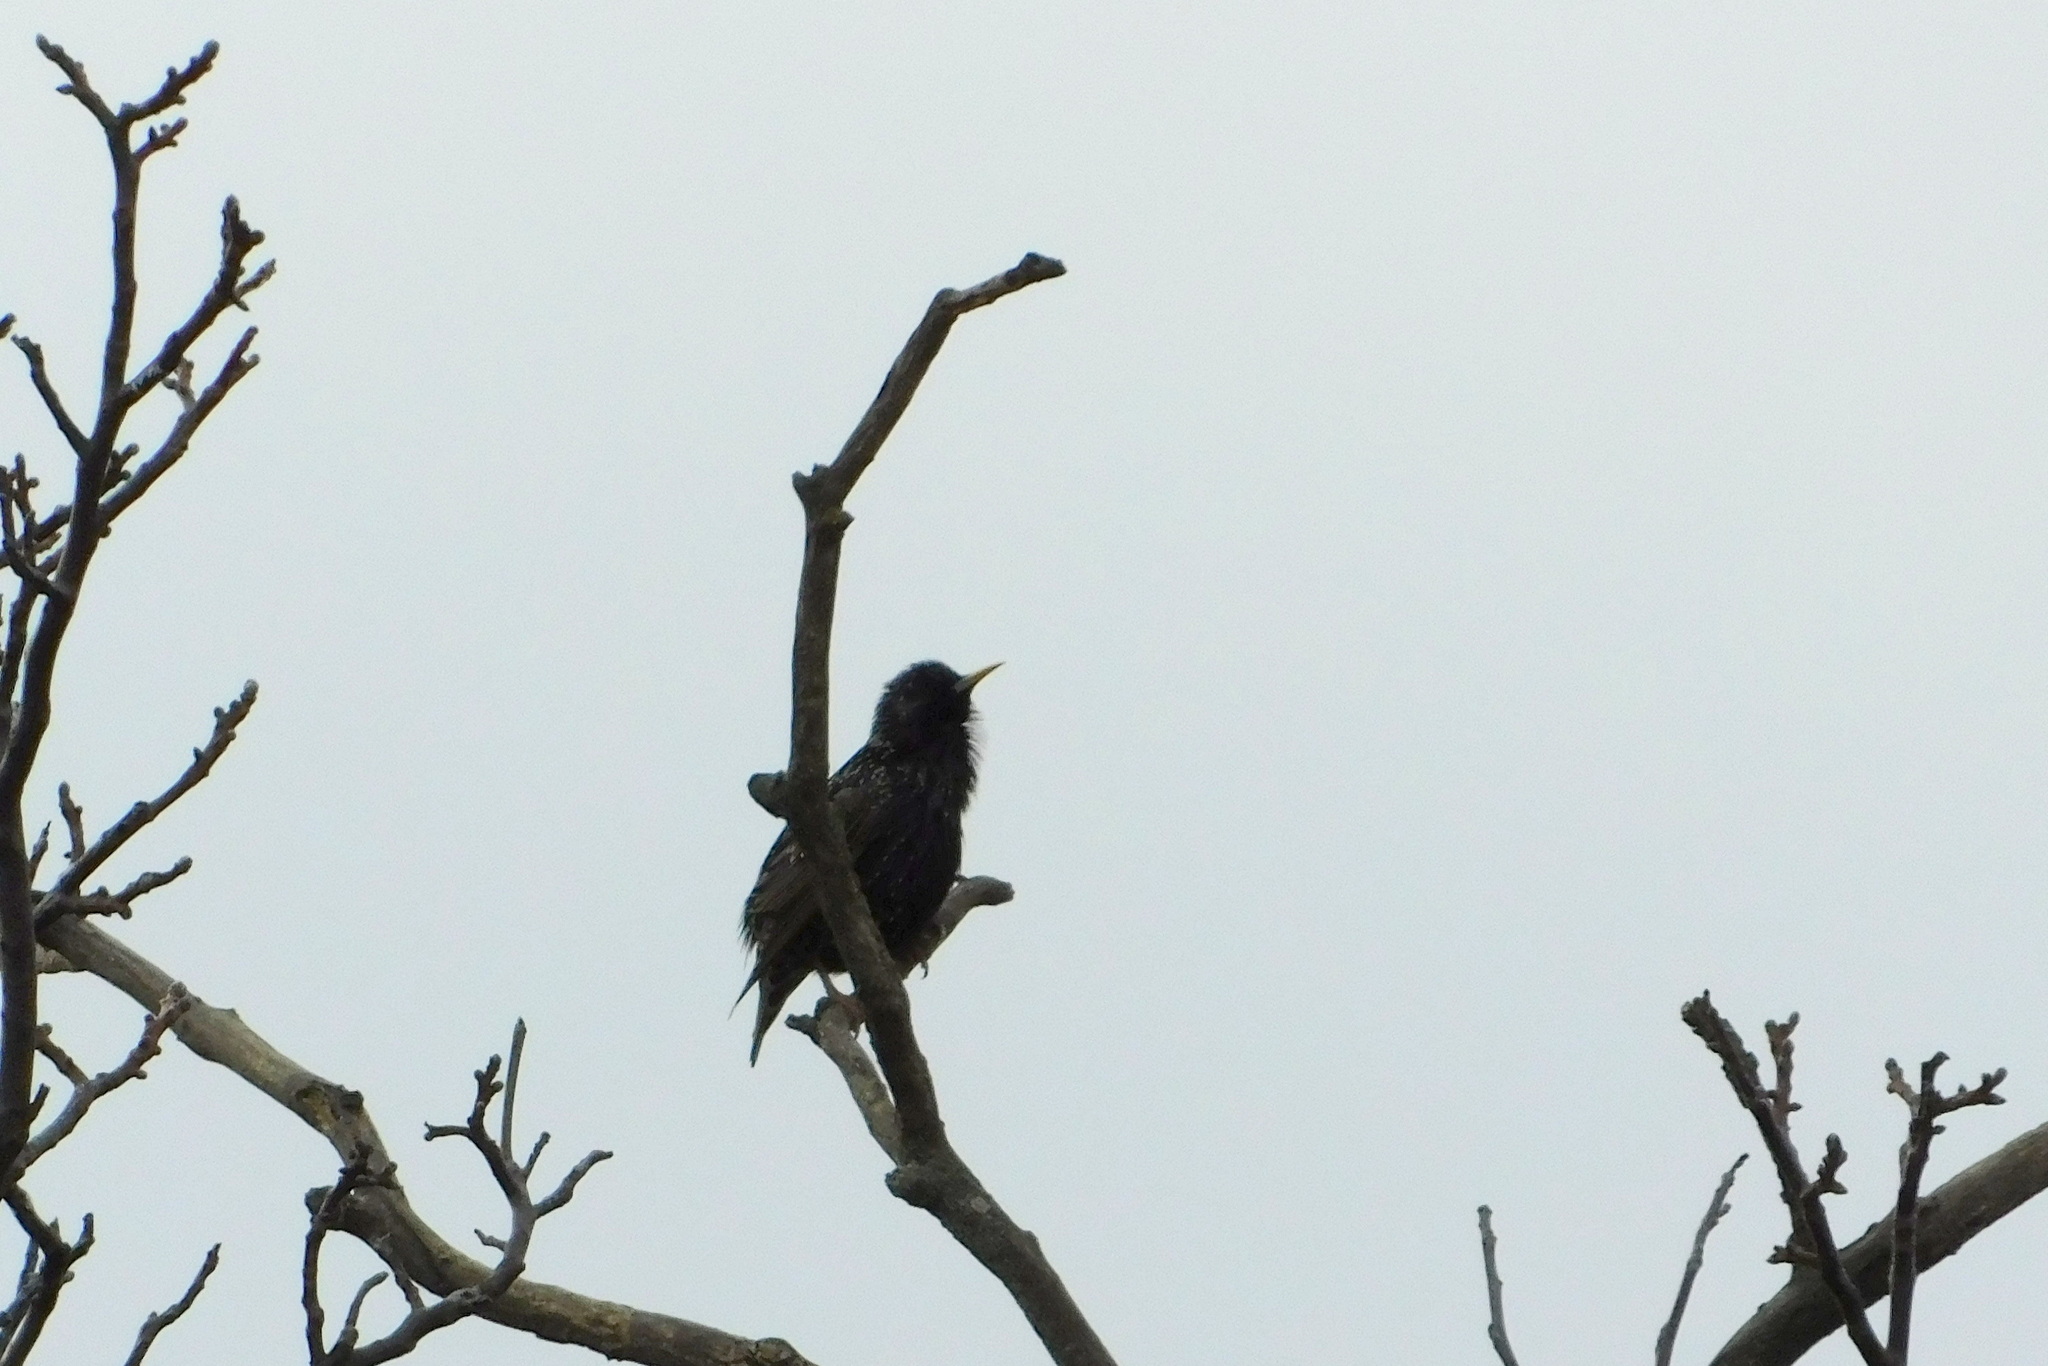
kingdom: Animalia
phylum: Chordata
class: Aves
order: Passeriformes
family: Sturnidae
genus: Sturnus
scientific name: Sturnus vulgaris
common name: Common starling
